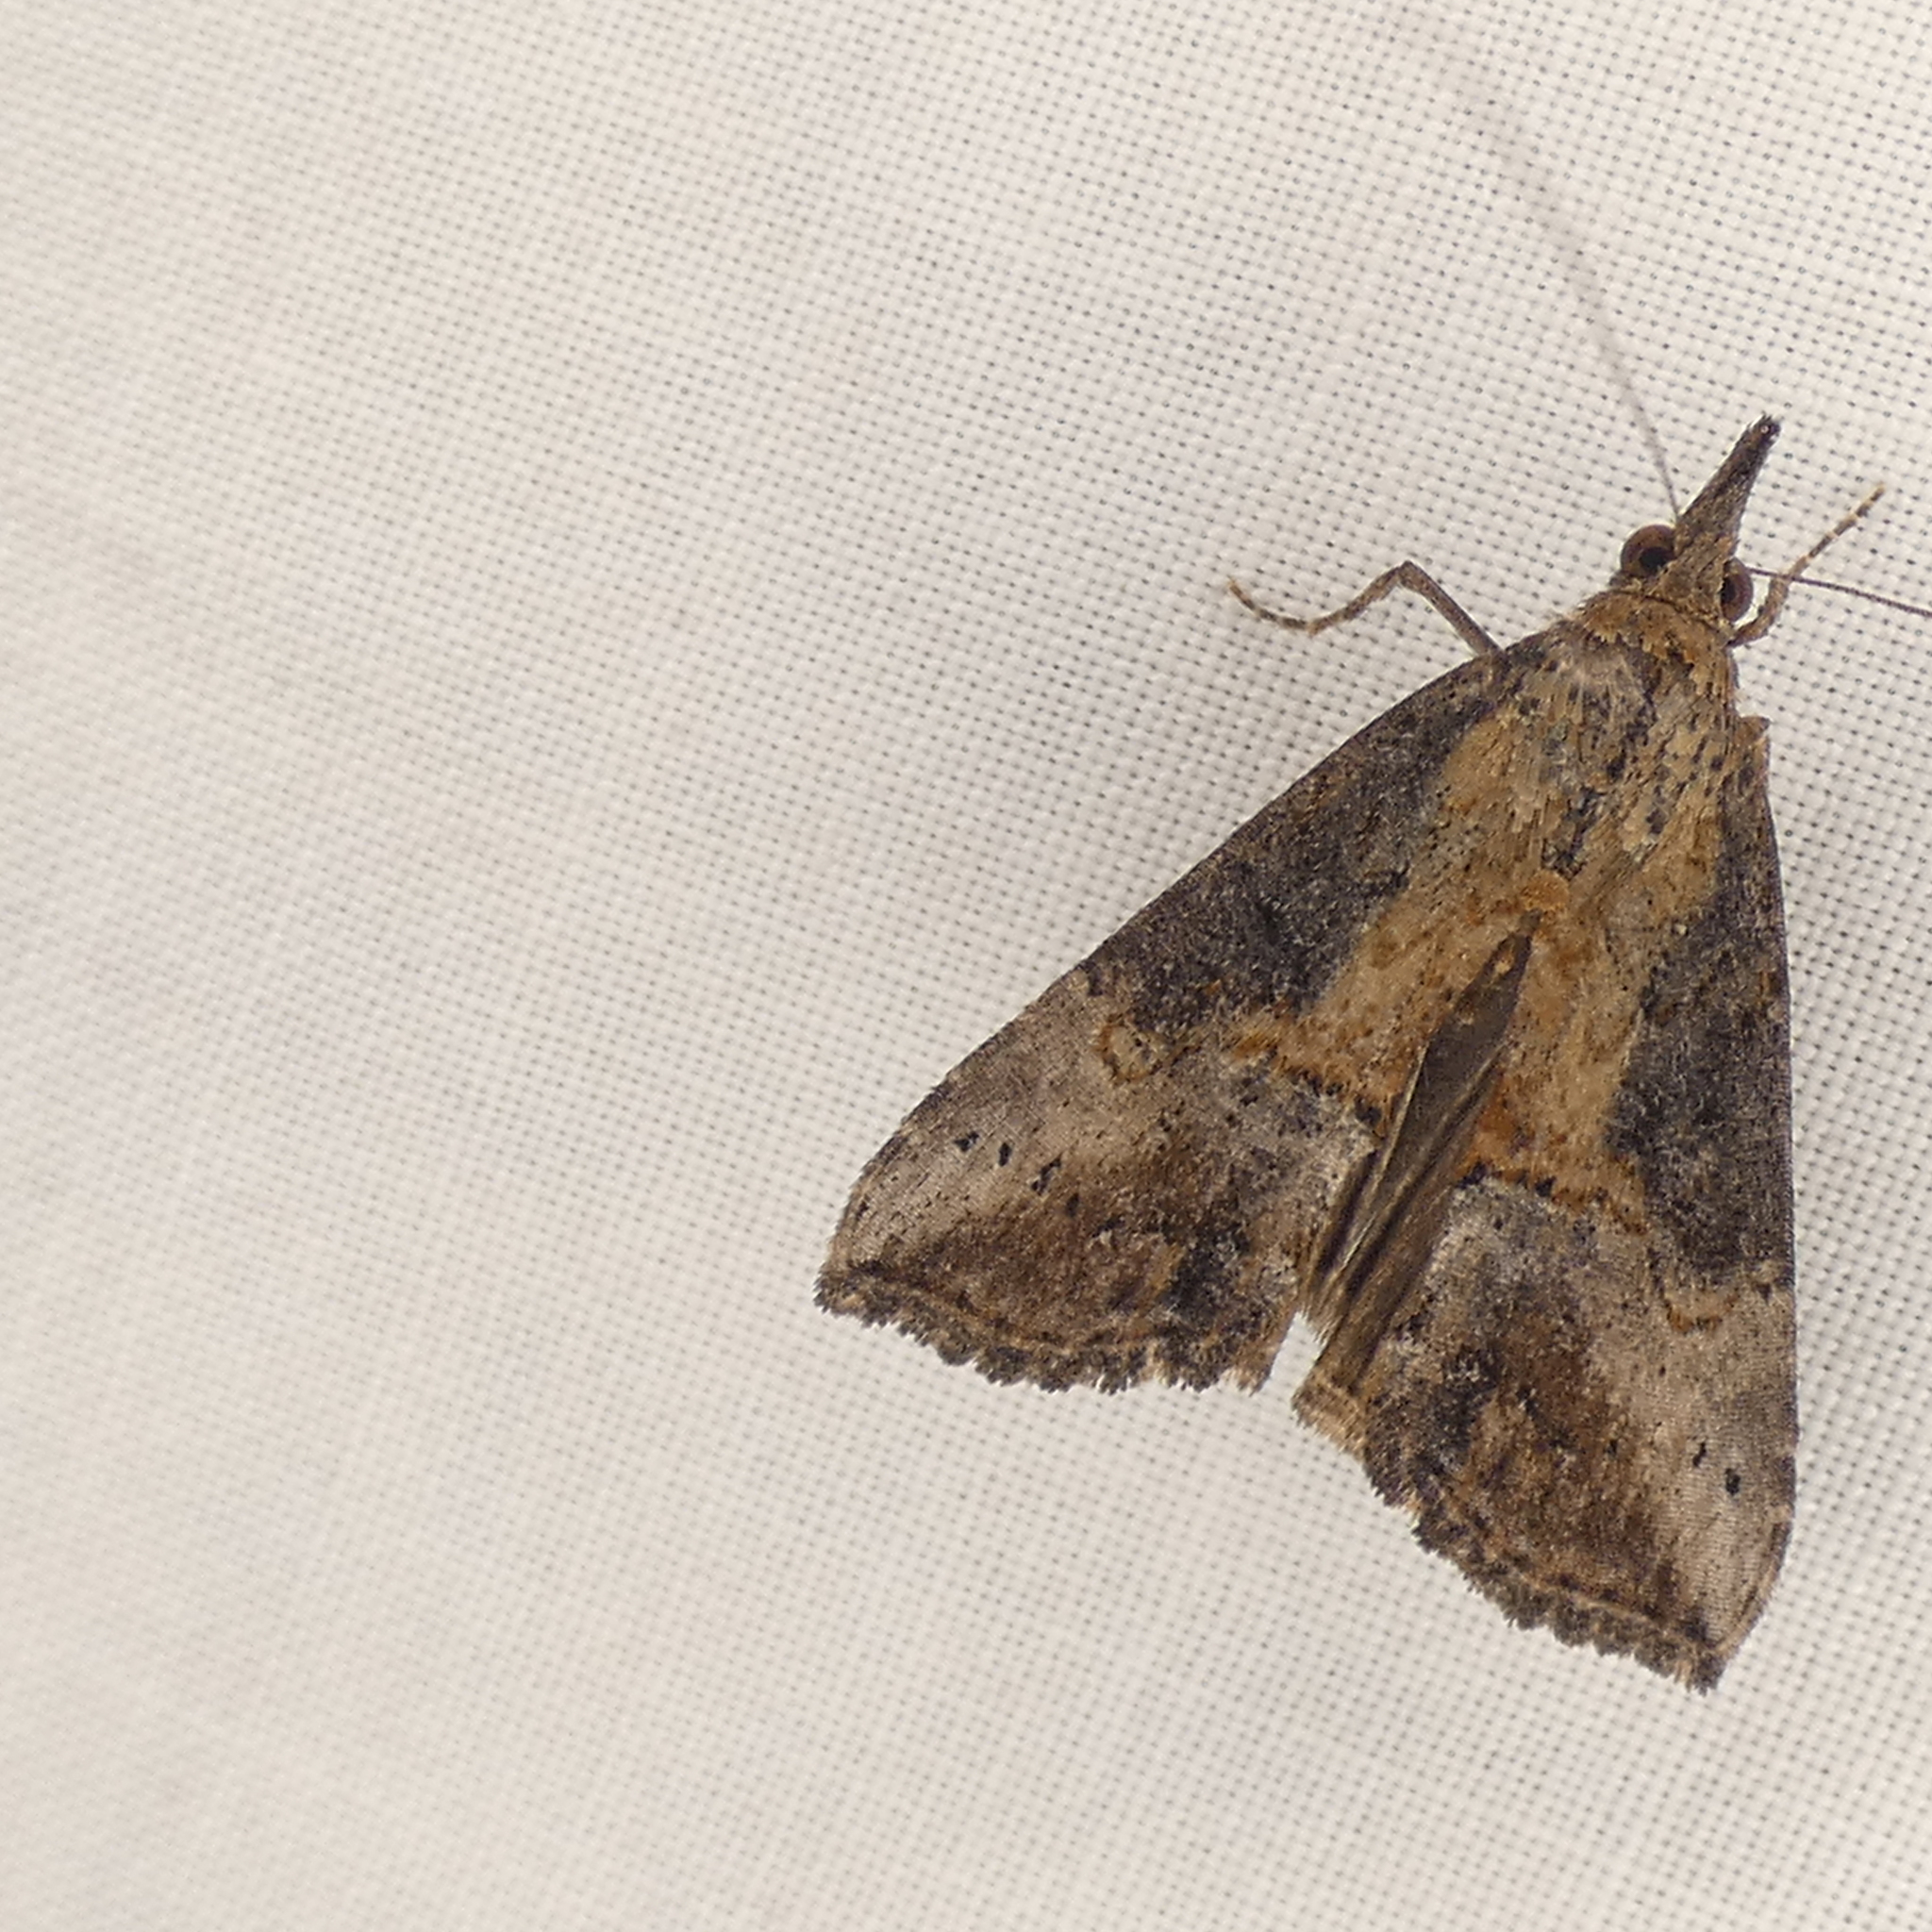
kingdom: Animalia
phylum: Arthropoda
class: Insecta
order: Lepidoptera
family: Erebidae
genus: Hypena
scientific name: Hypena scabra
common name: Green cloverworm
